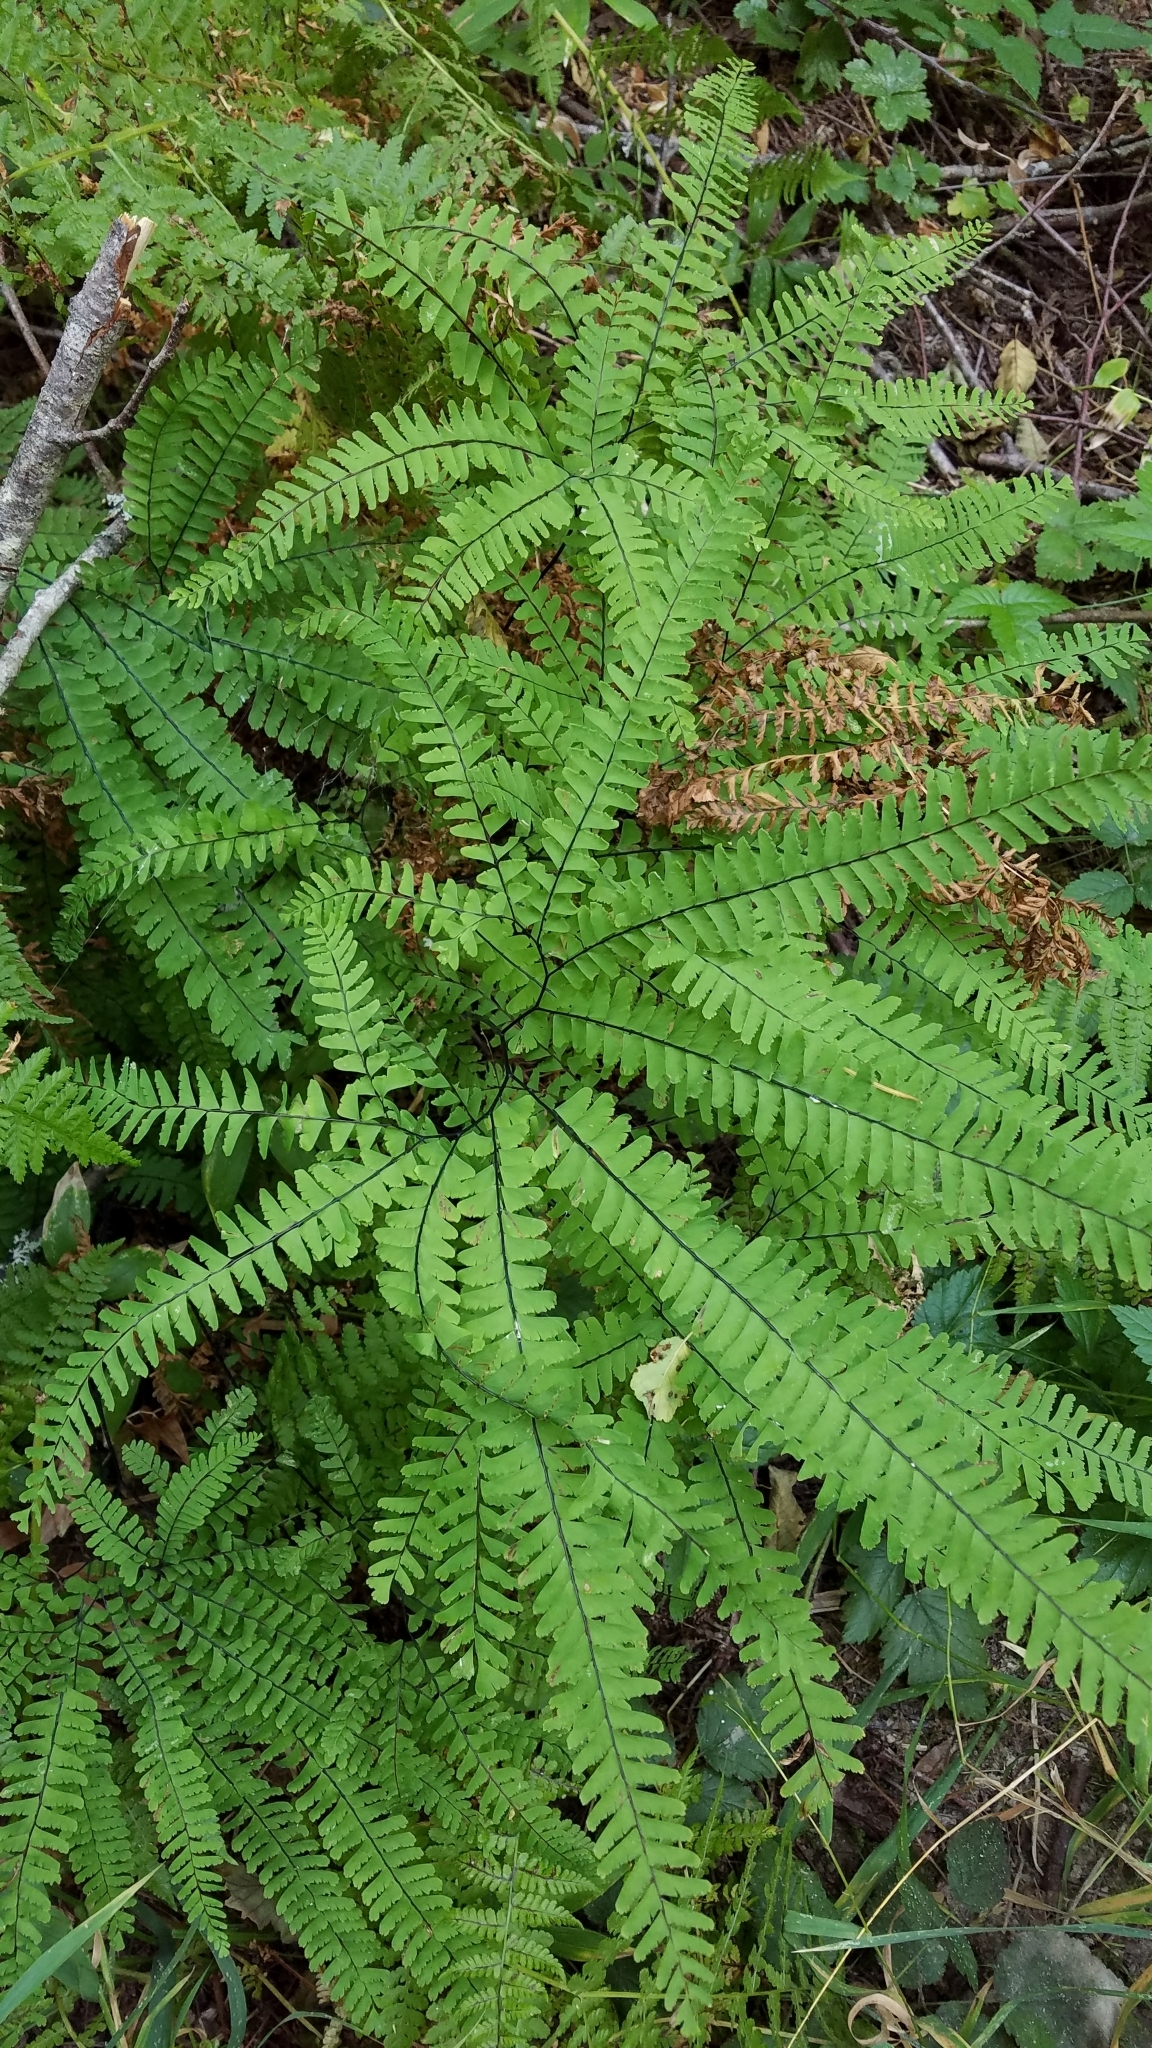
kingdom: Plantae
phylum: Tracheophyta
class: Polypodiopsida
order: Polypodiales
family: Pteridaceae
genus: Adiantum
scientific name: Adiantum aleuticum
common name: Aleutian maidenhair fern
